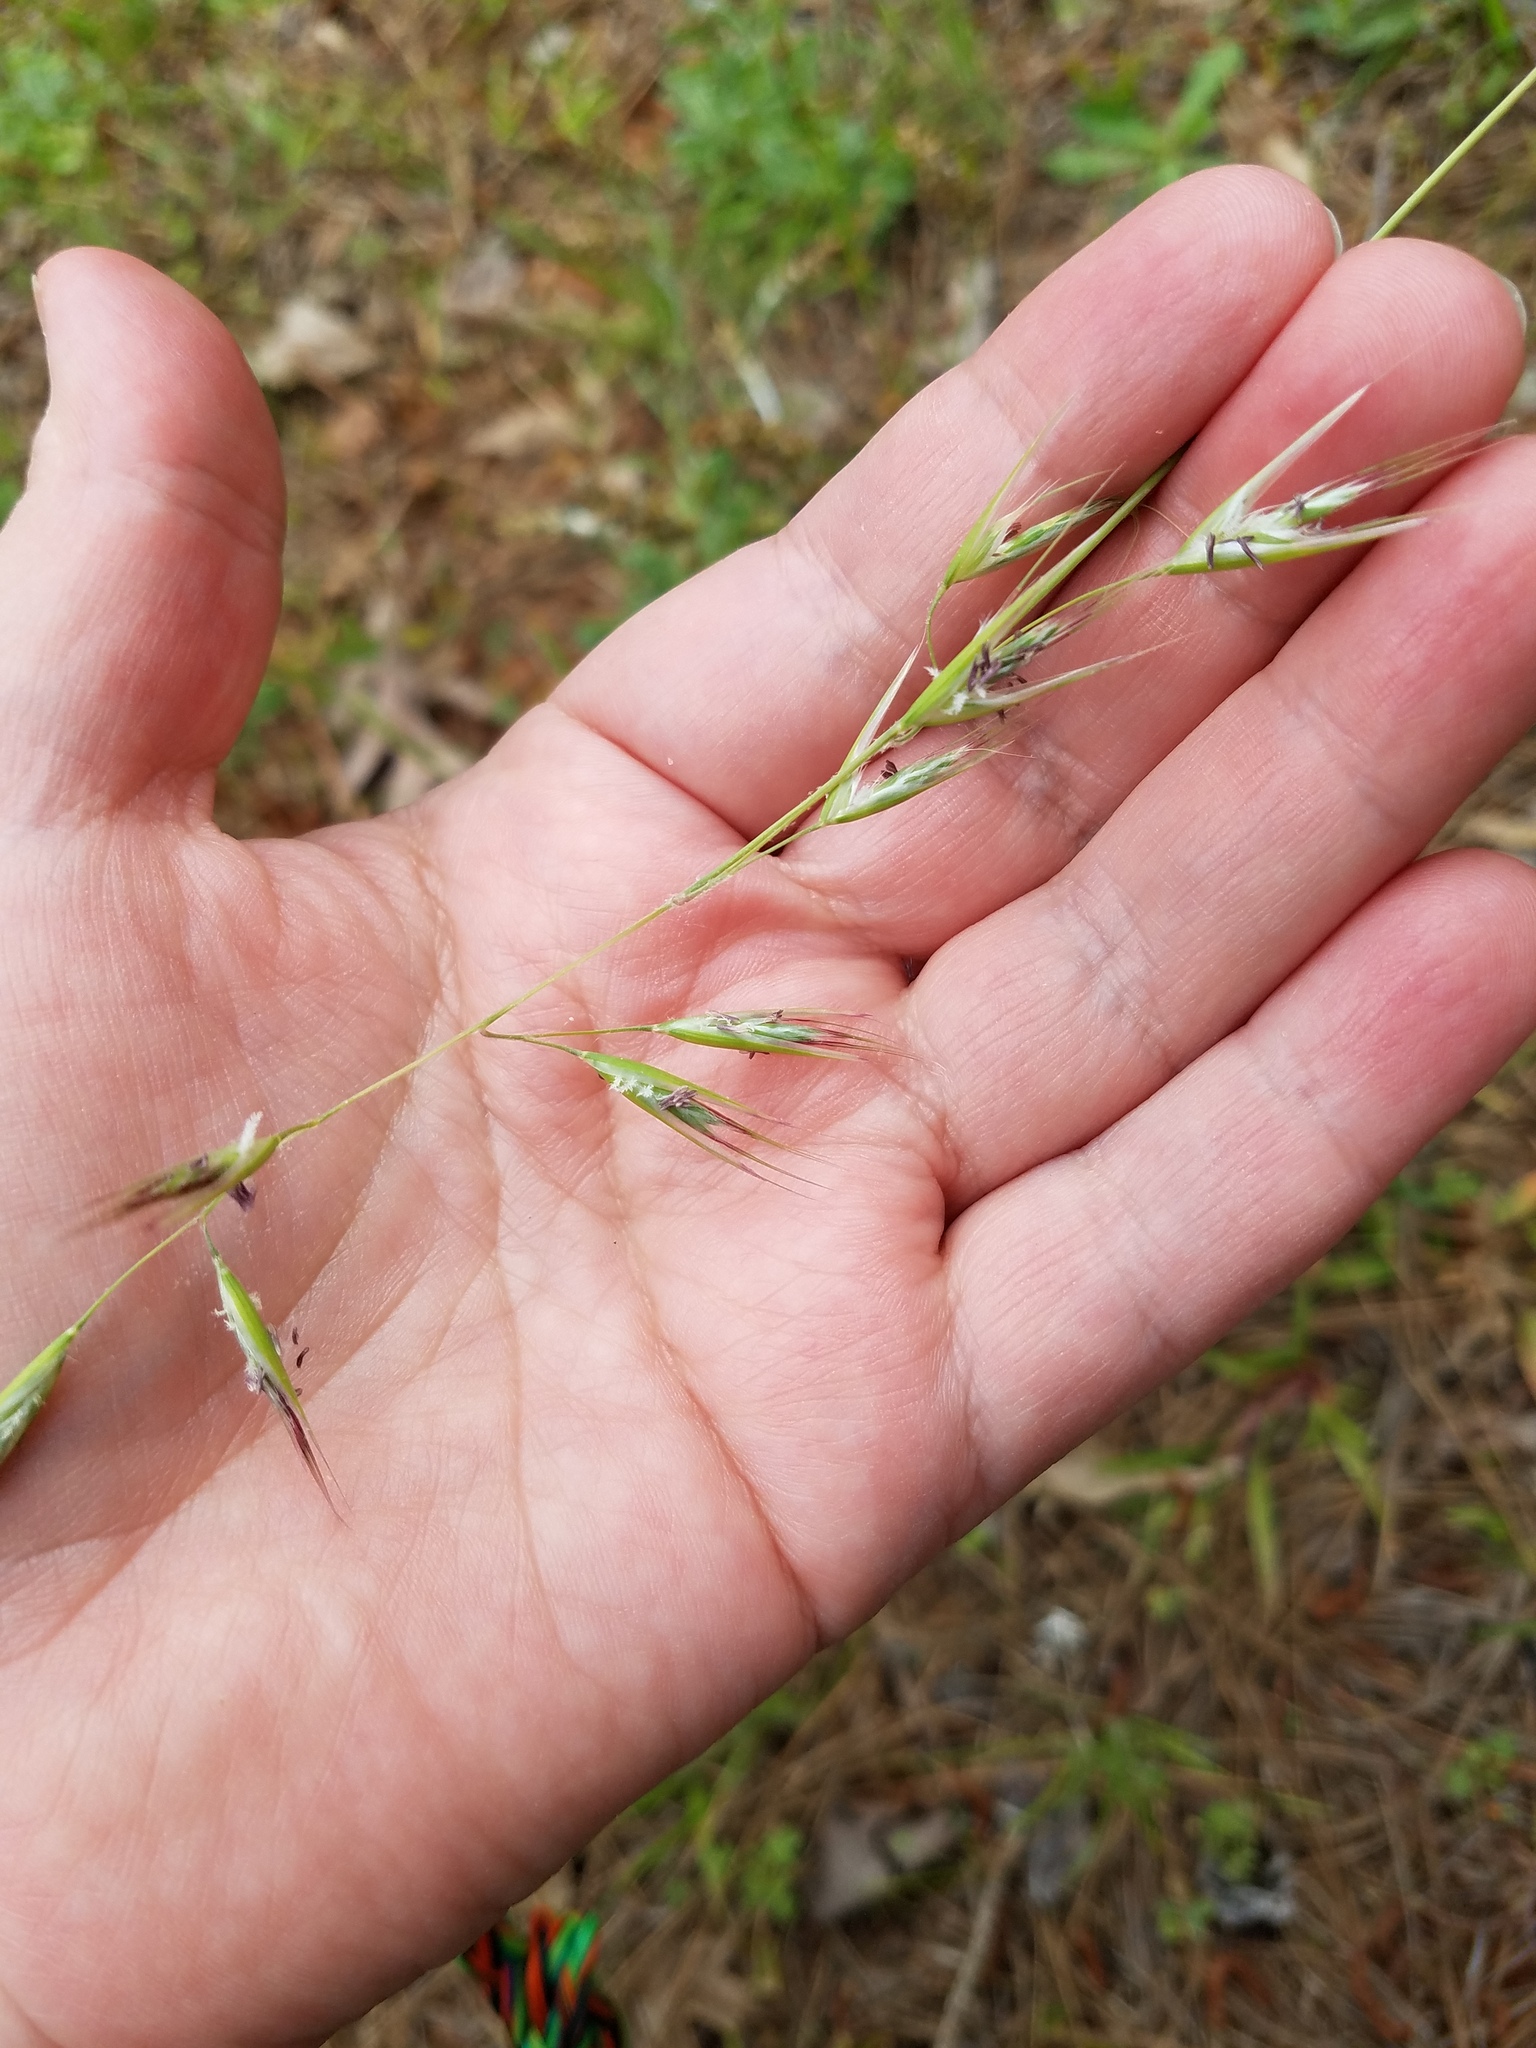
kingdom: Plantae
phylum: Tracheophyta
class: Liliopsida
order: Poales
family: Poaceae
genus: Danthonia
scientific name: Danthonia sericea
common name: Downy danthonia
